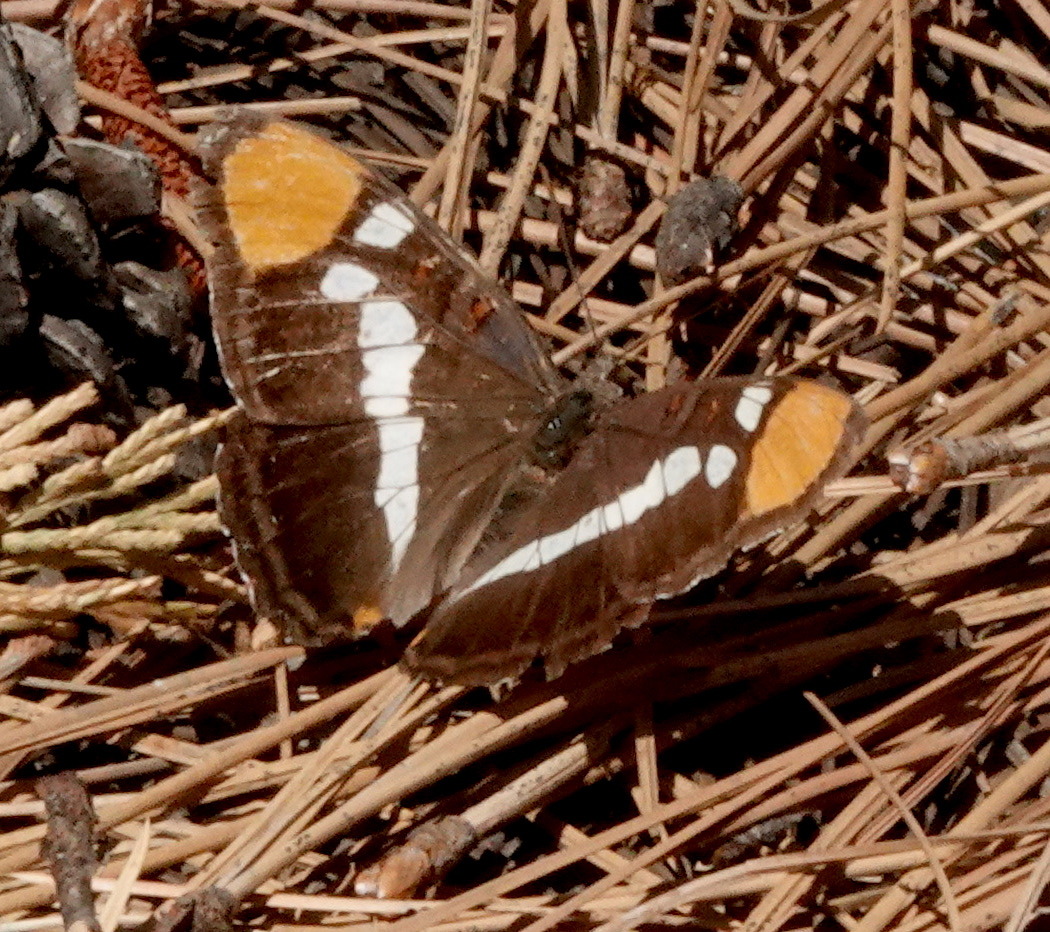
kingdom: Animalia
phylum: Arthropoda
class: Insecta
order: Lepidoptera
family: Nymphalidae
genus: Limenitis
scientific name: Limenitis bredowii
